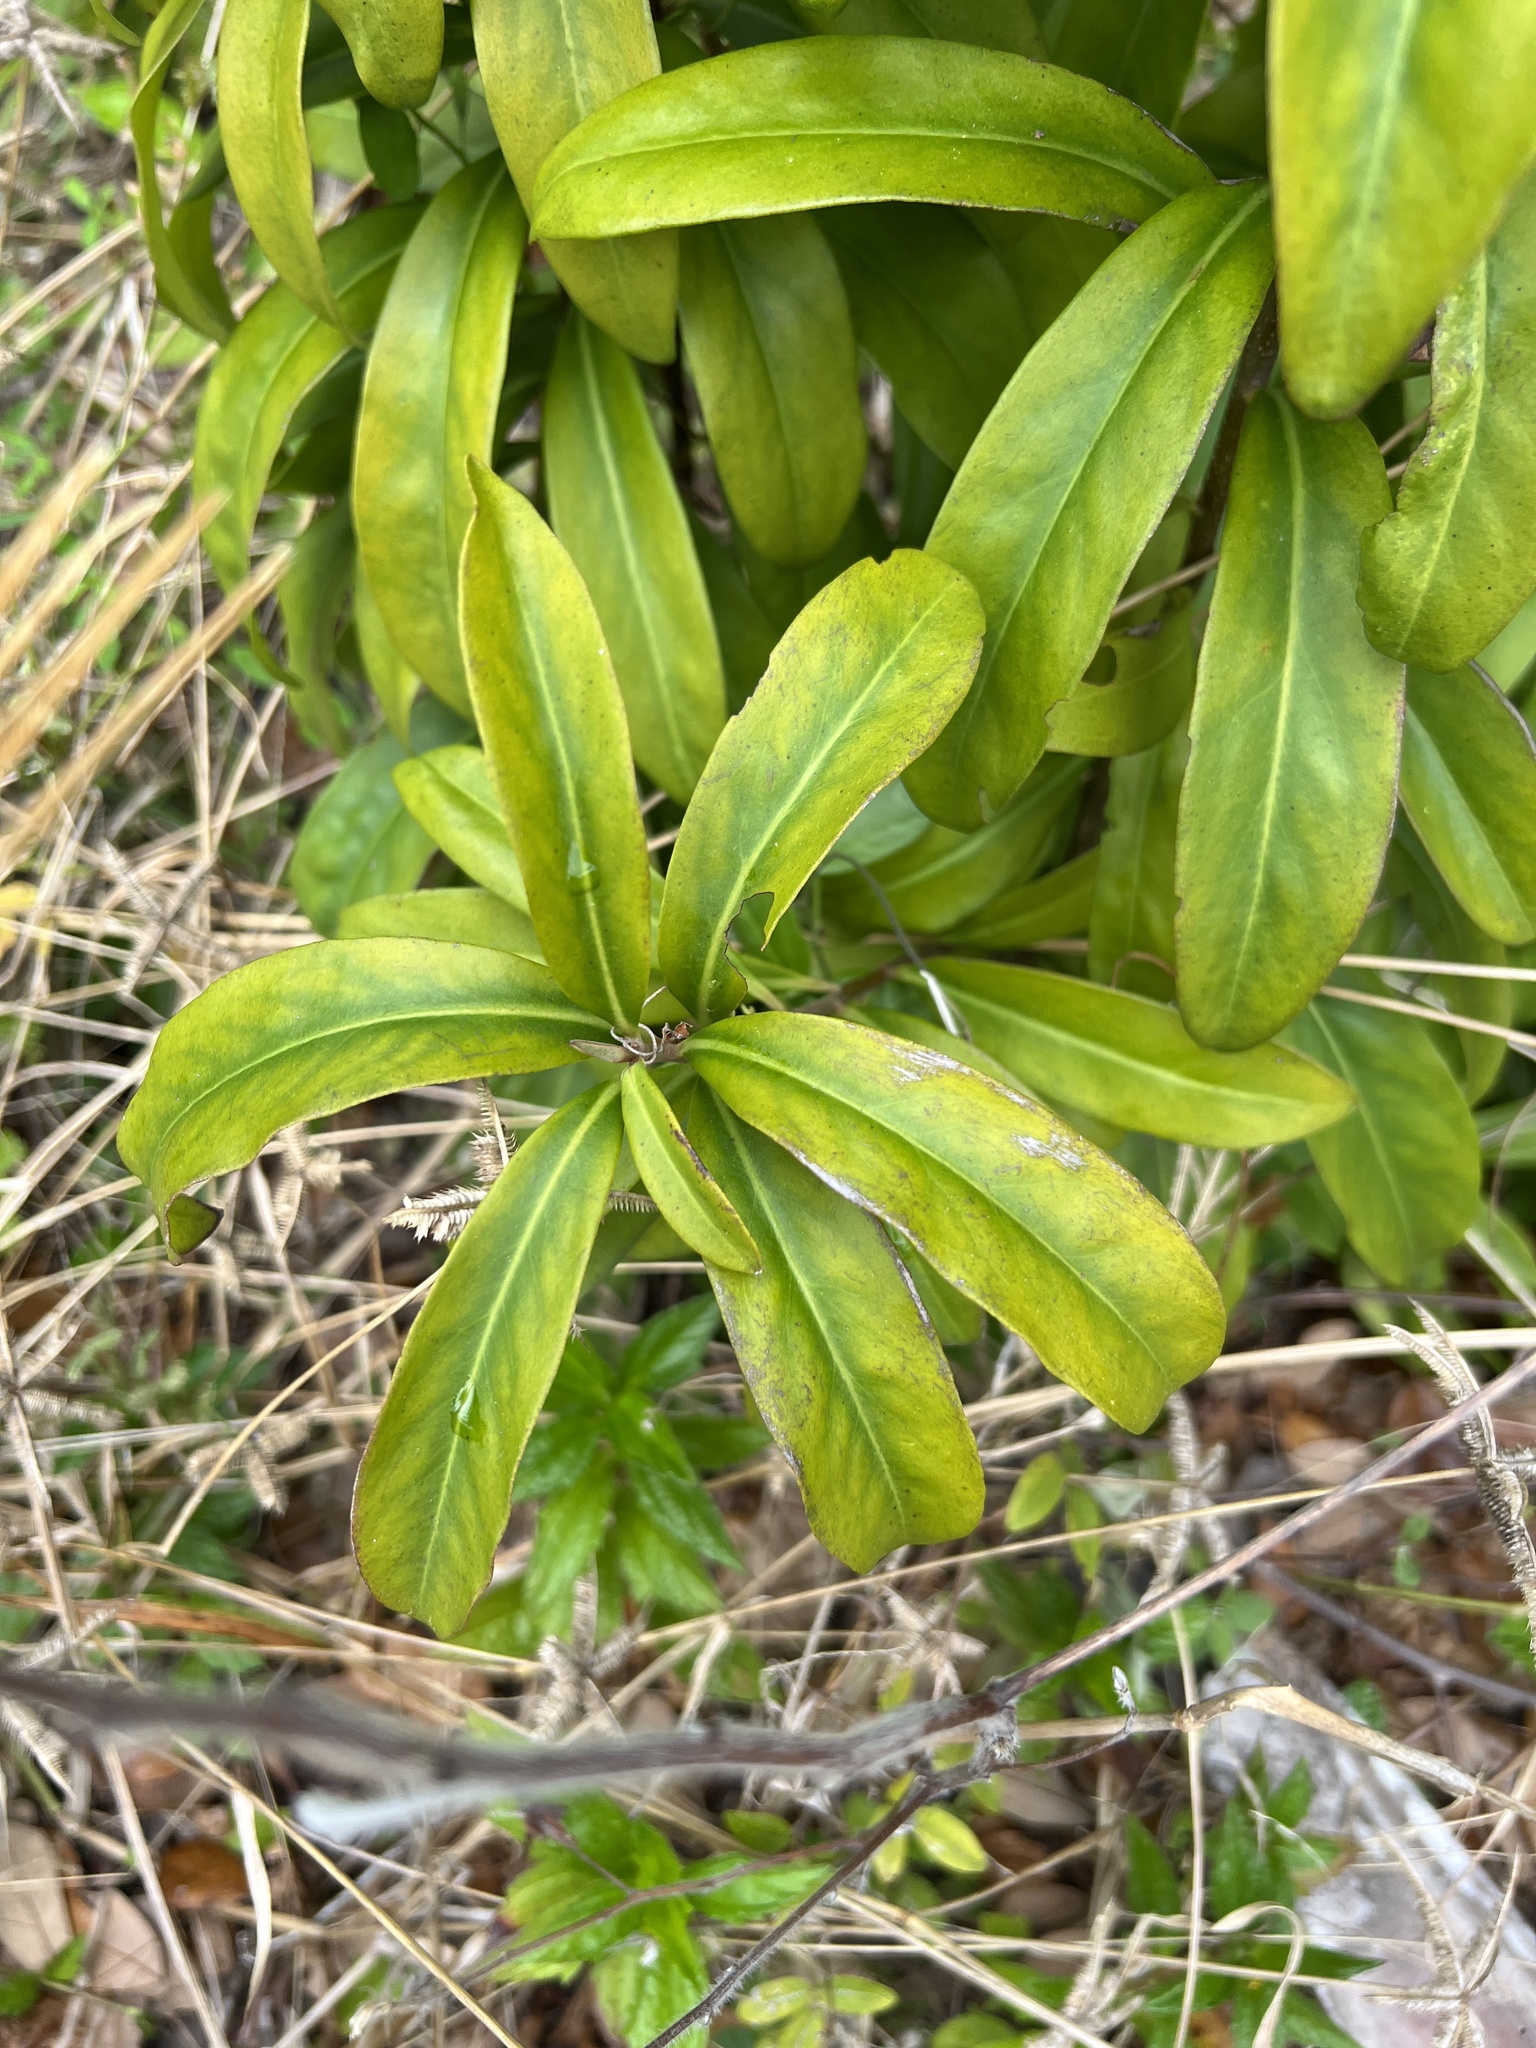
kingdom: Plantae
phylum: Tracheophyta
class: Magnoliopsida
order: Ericales
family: Primulaceae
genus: Ardisia
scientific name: Ardisia escallonioides
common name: Island marlberry
